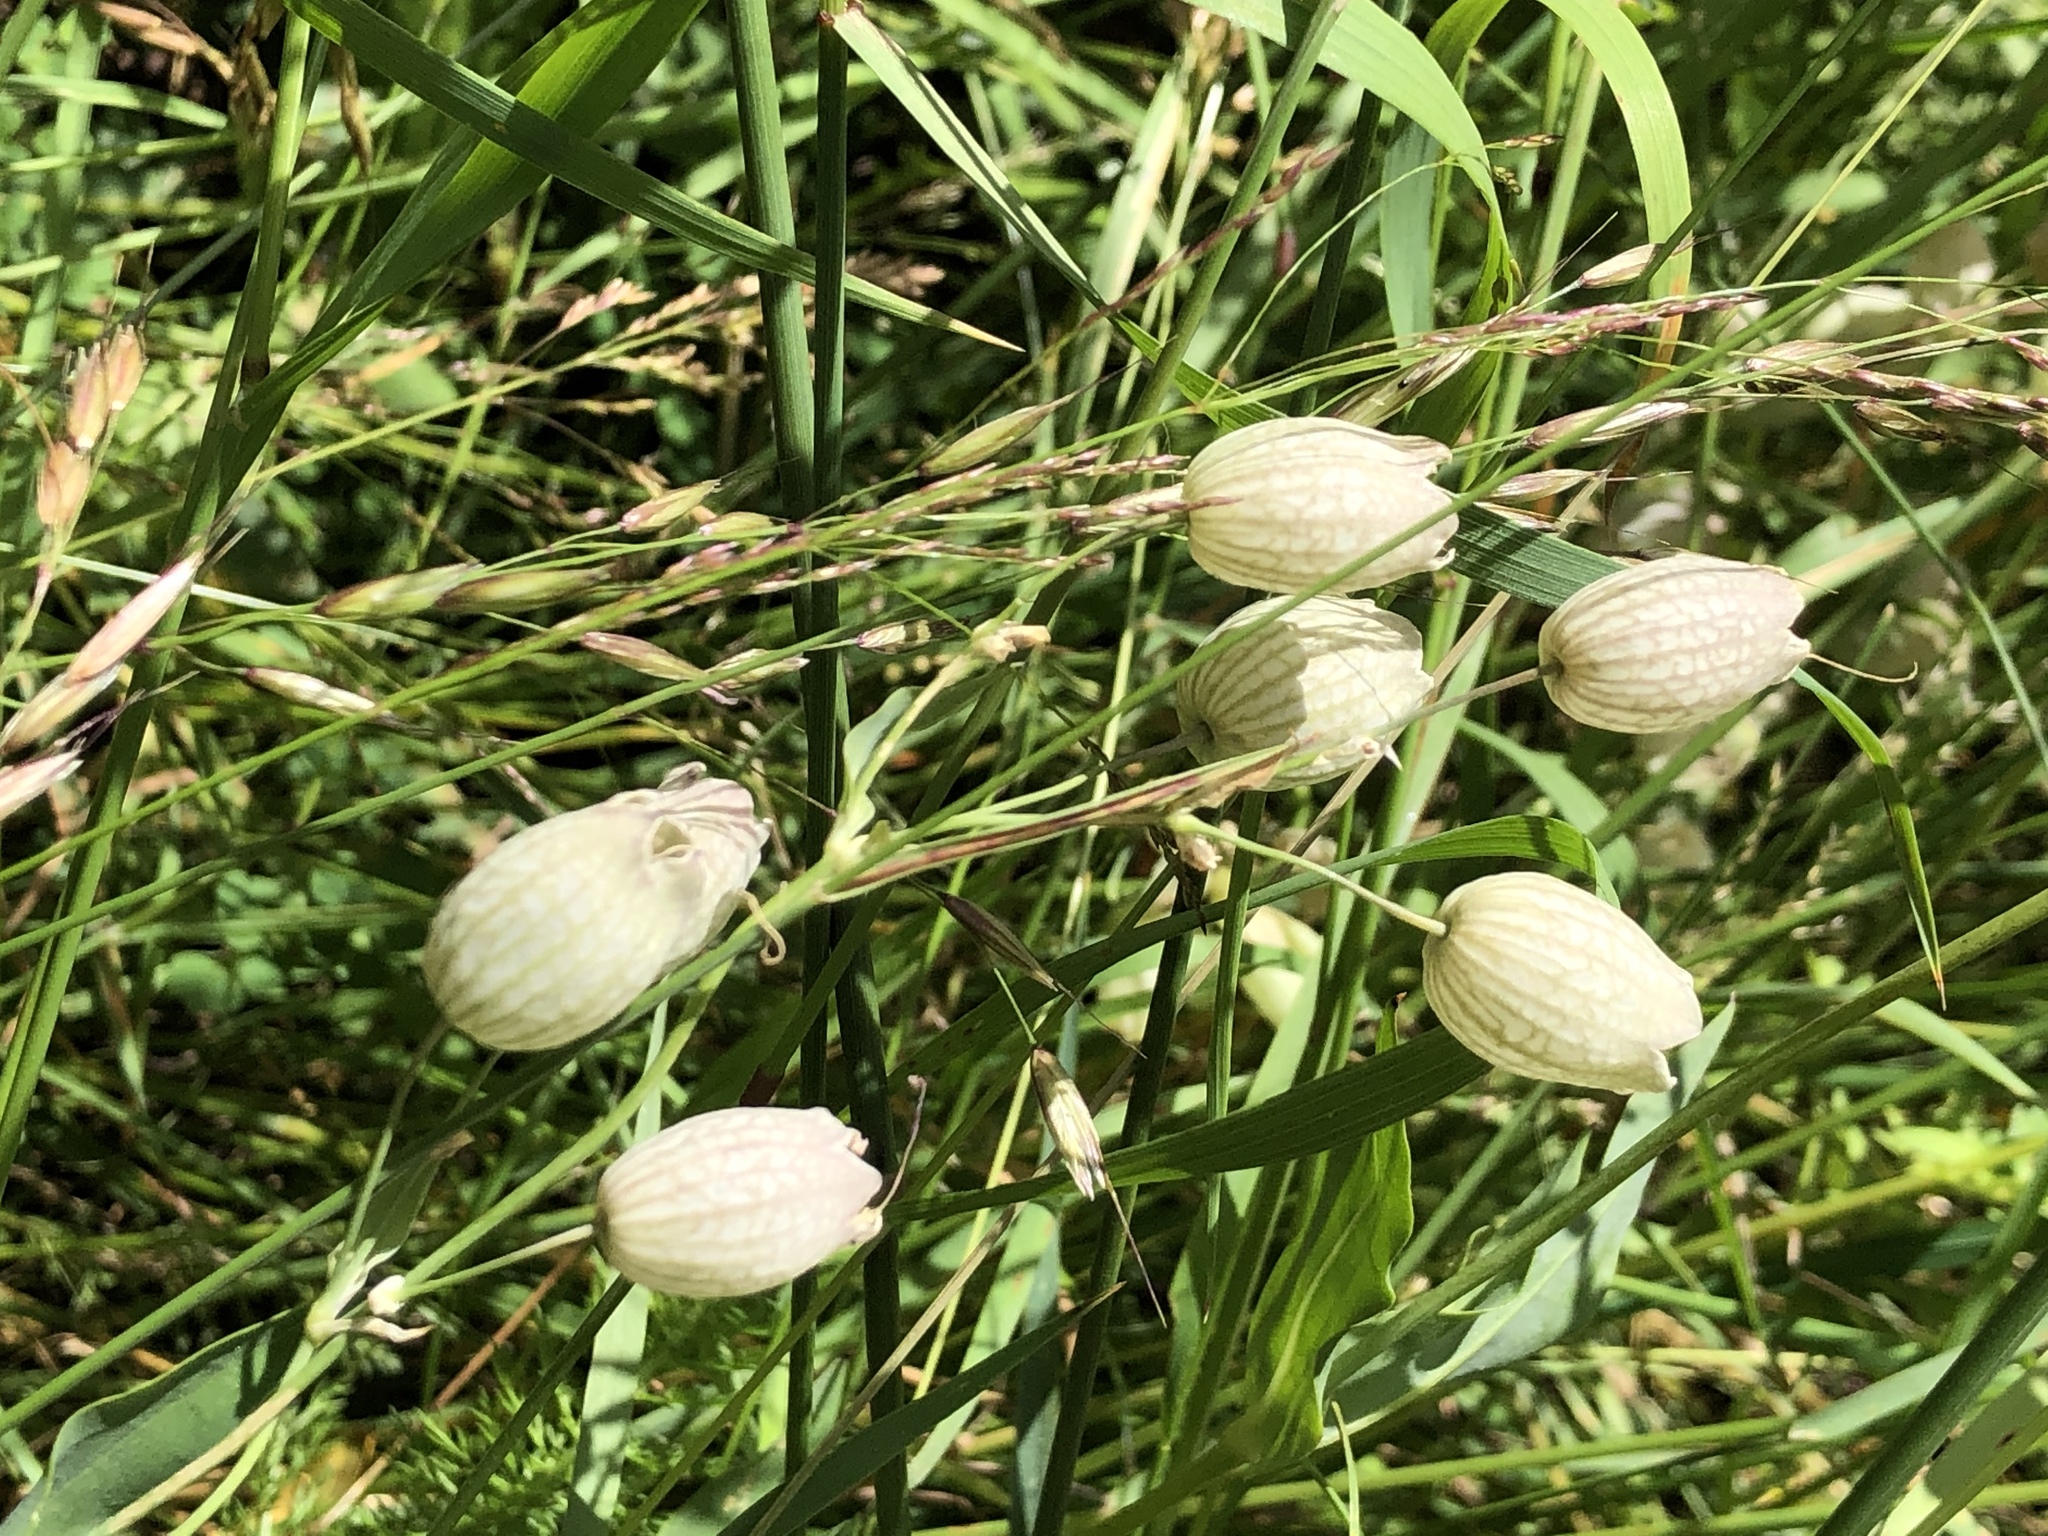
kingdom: Plantae
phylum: Tracheophyta
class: Magnoliopsida
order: Caryophyllales
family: Caryophyllaceae
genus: Silene
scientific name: Silene vulgaris
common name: Bladder campion
